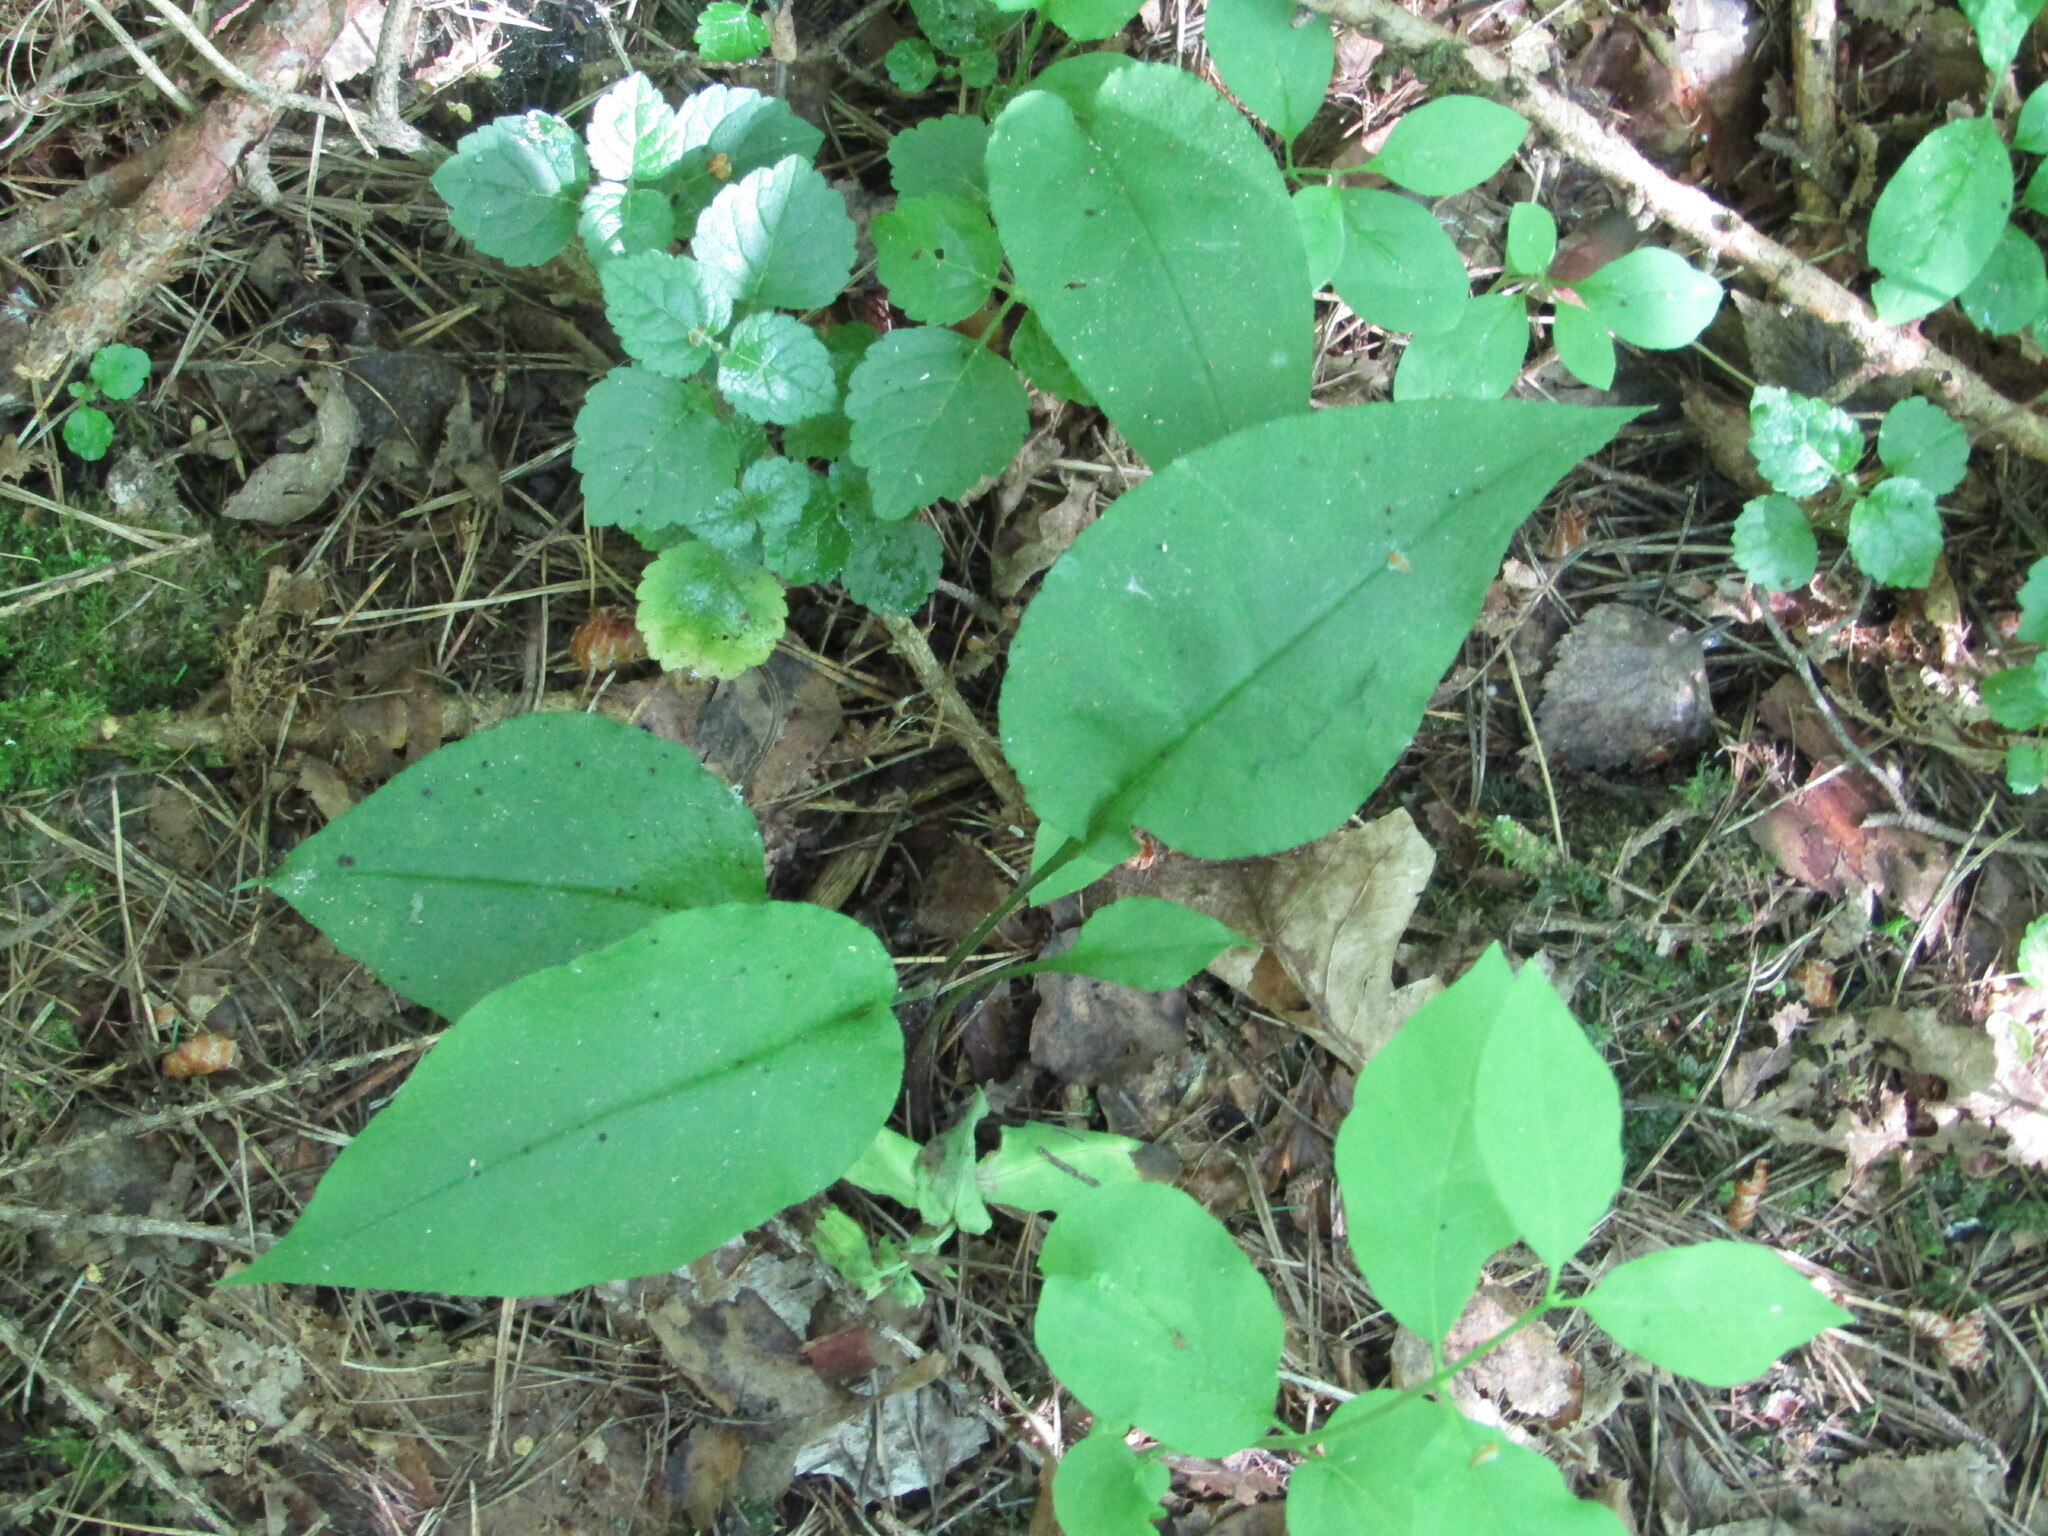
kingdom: Plantae
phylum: Tracheophyta
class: Magnoliopsida
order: Boraginales
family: Boraginaceae
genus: Pulmonaria
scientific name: Pulmonaria obscura
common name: Suffolk lungwort
